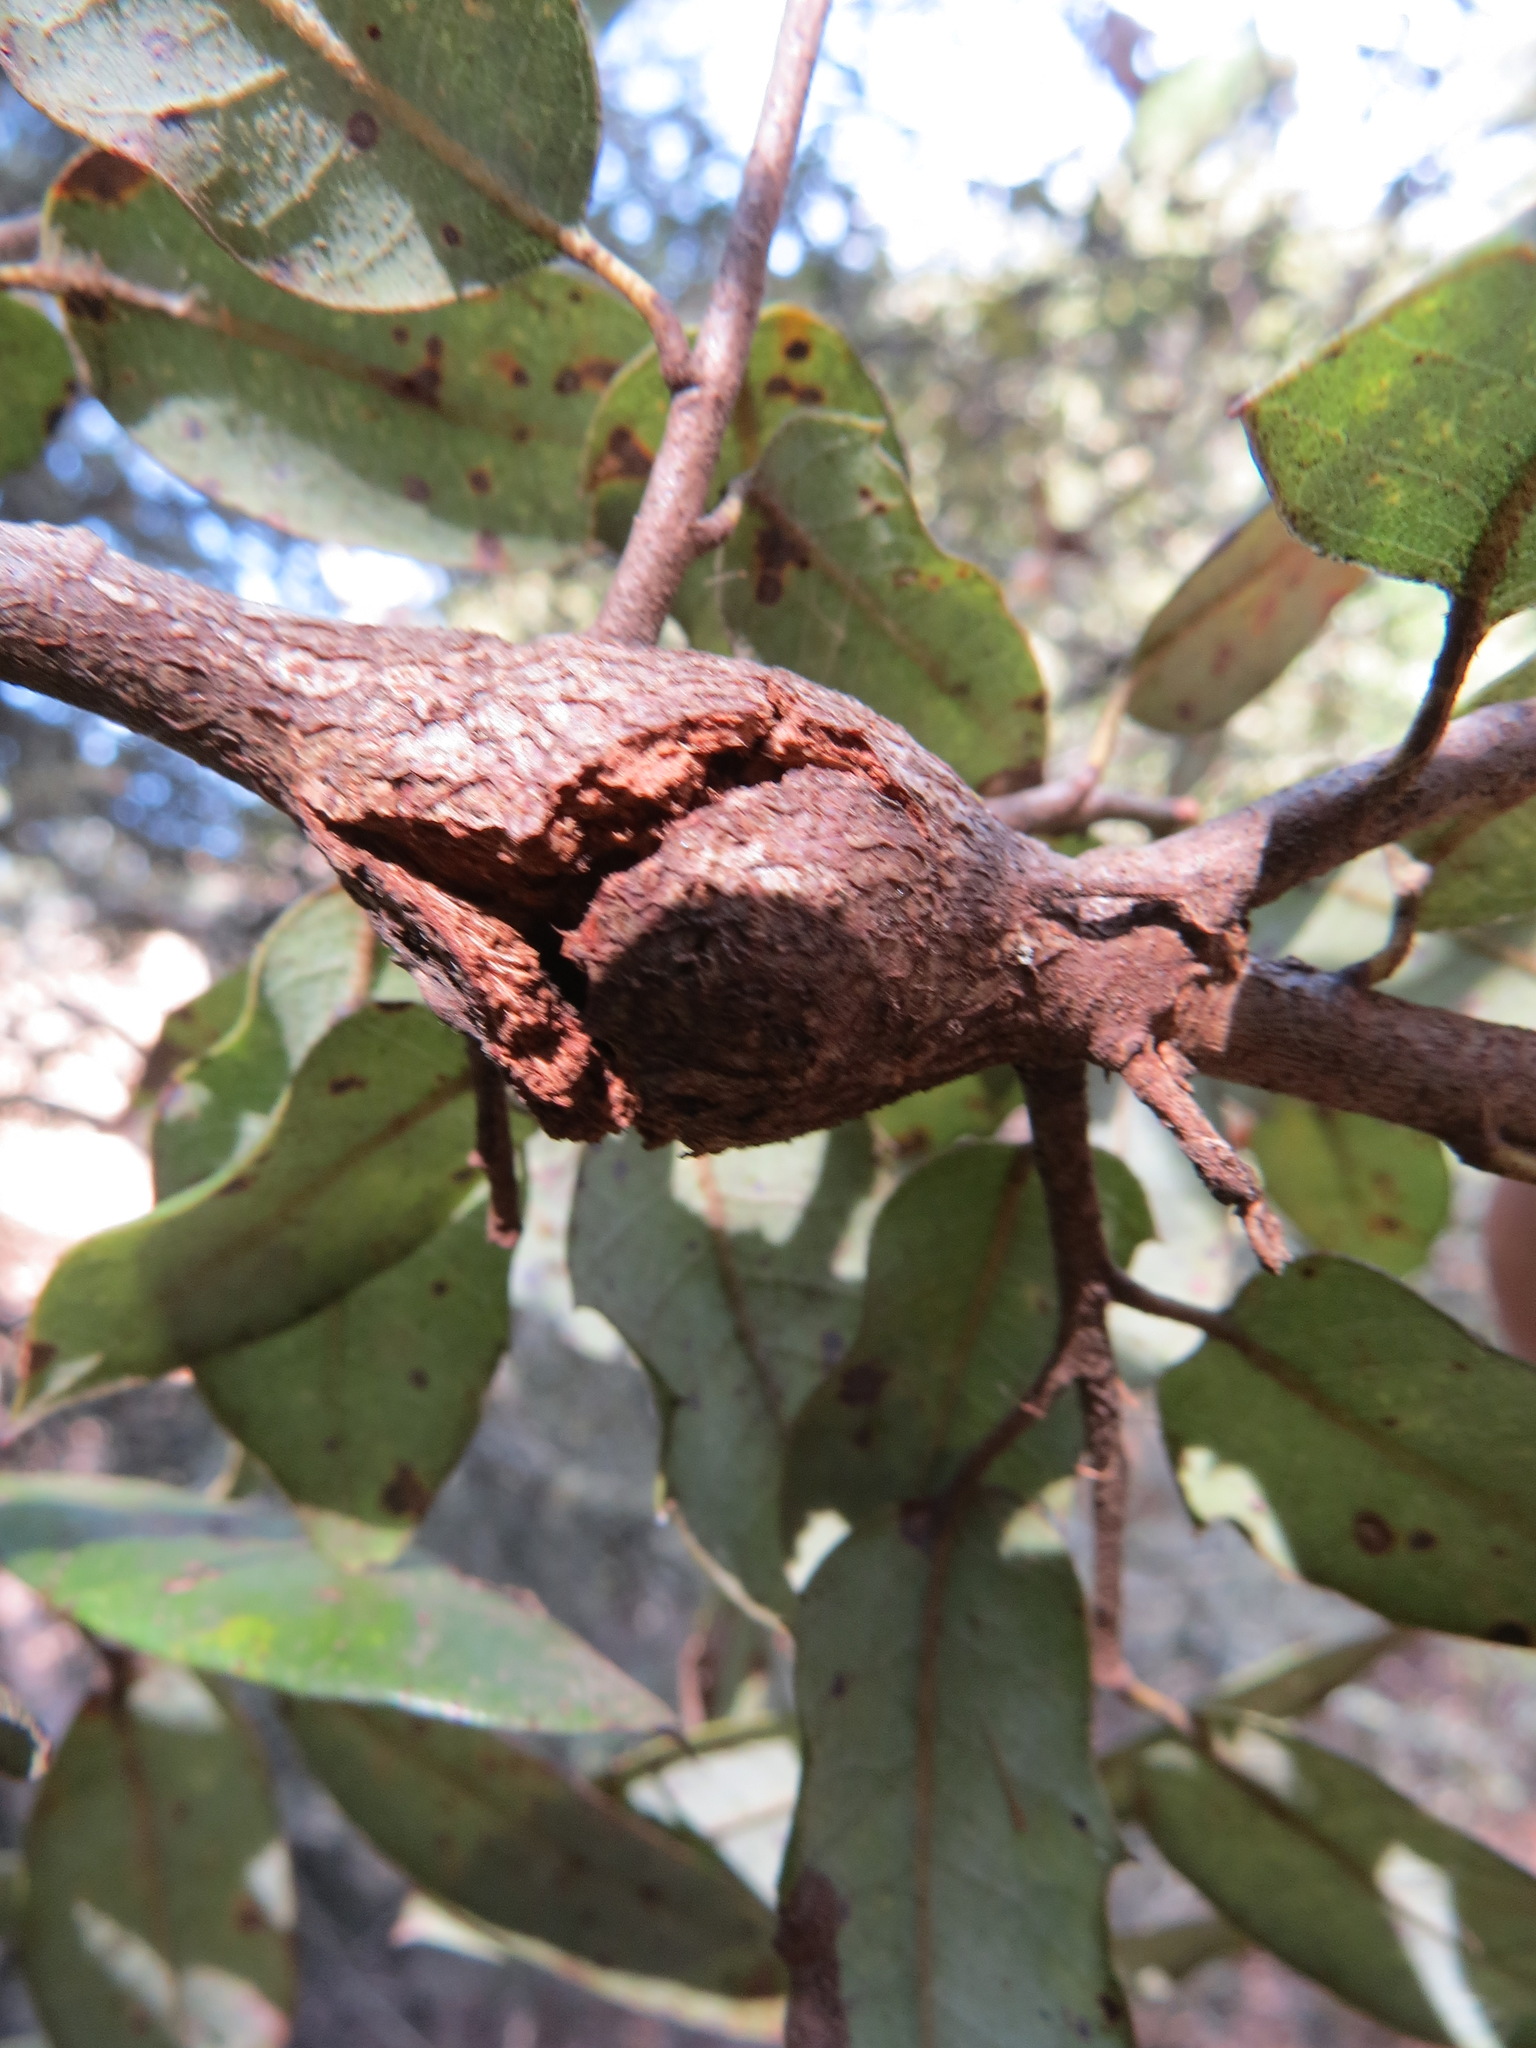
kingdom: Animalia
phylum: Arthropoda
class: Insecta
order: Hymenoptera
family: Cynipidae
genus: Dryocosmus
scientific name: Dryocosmus
